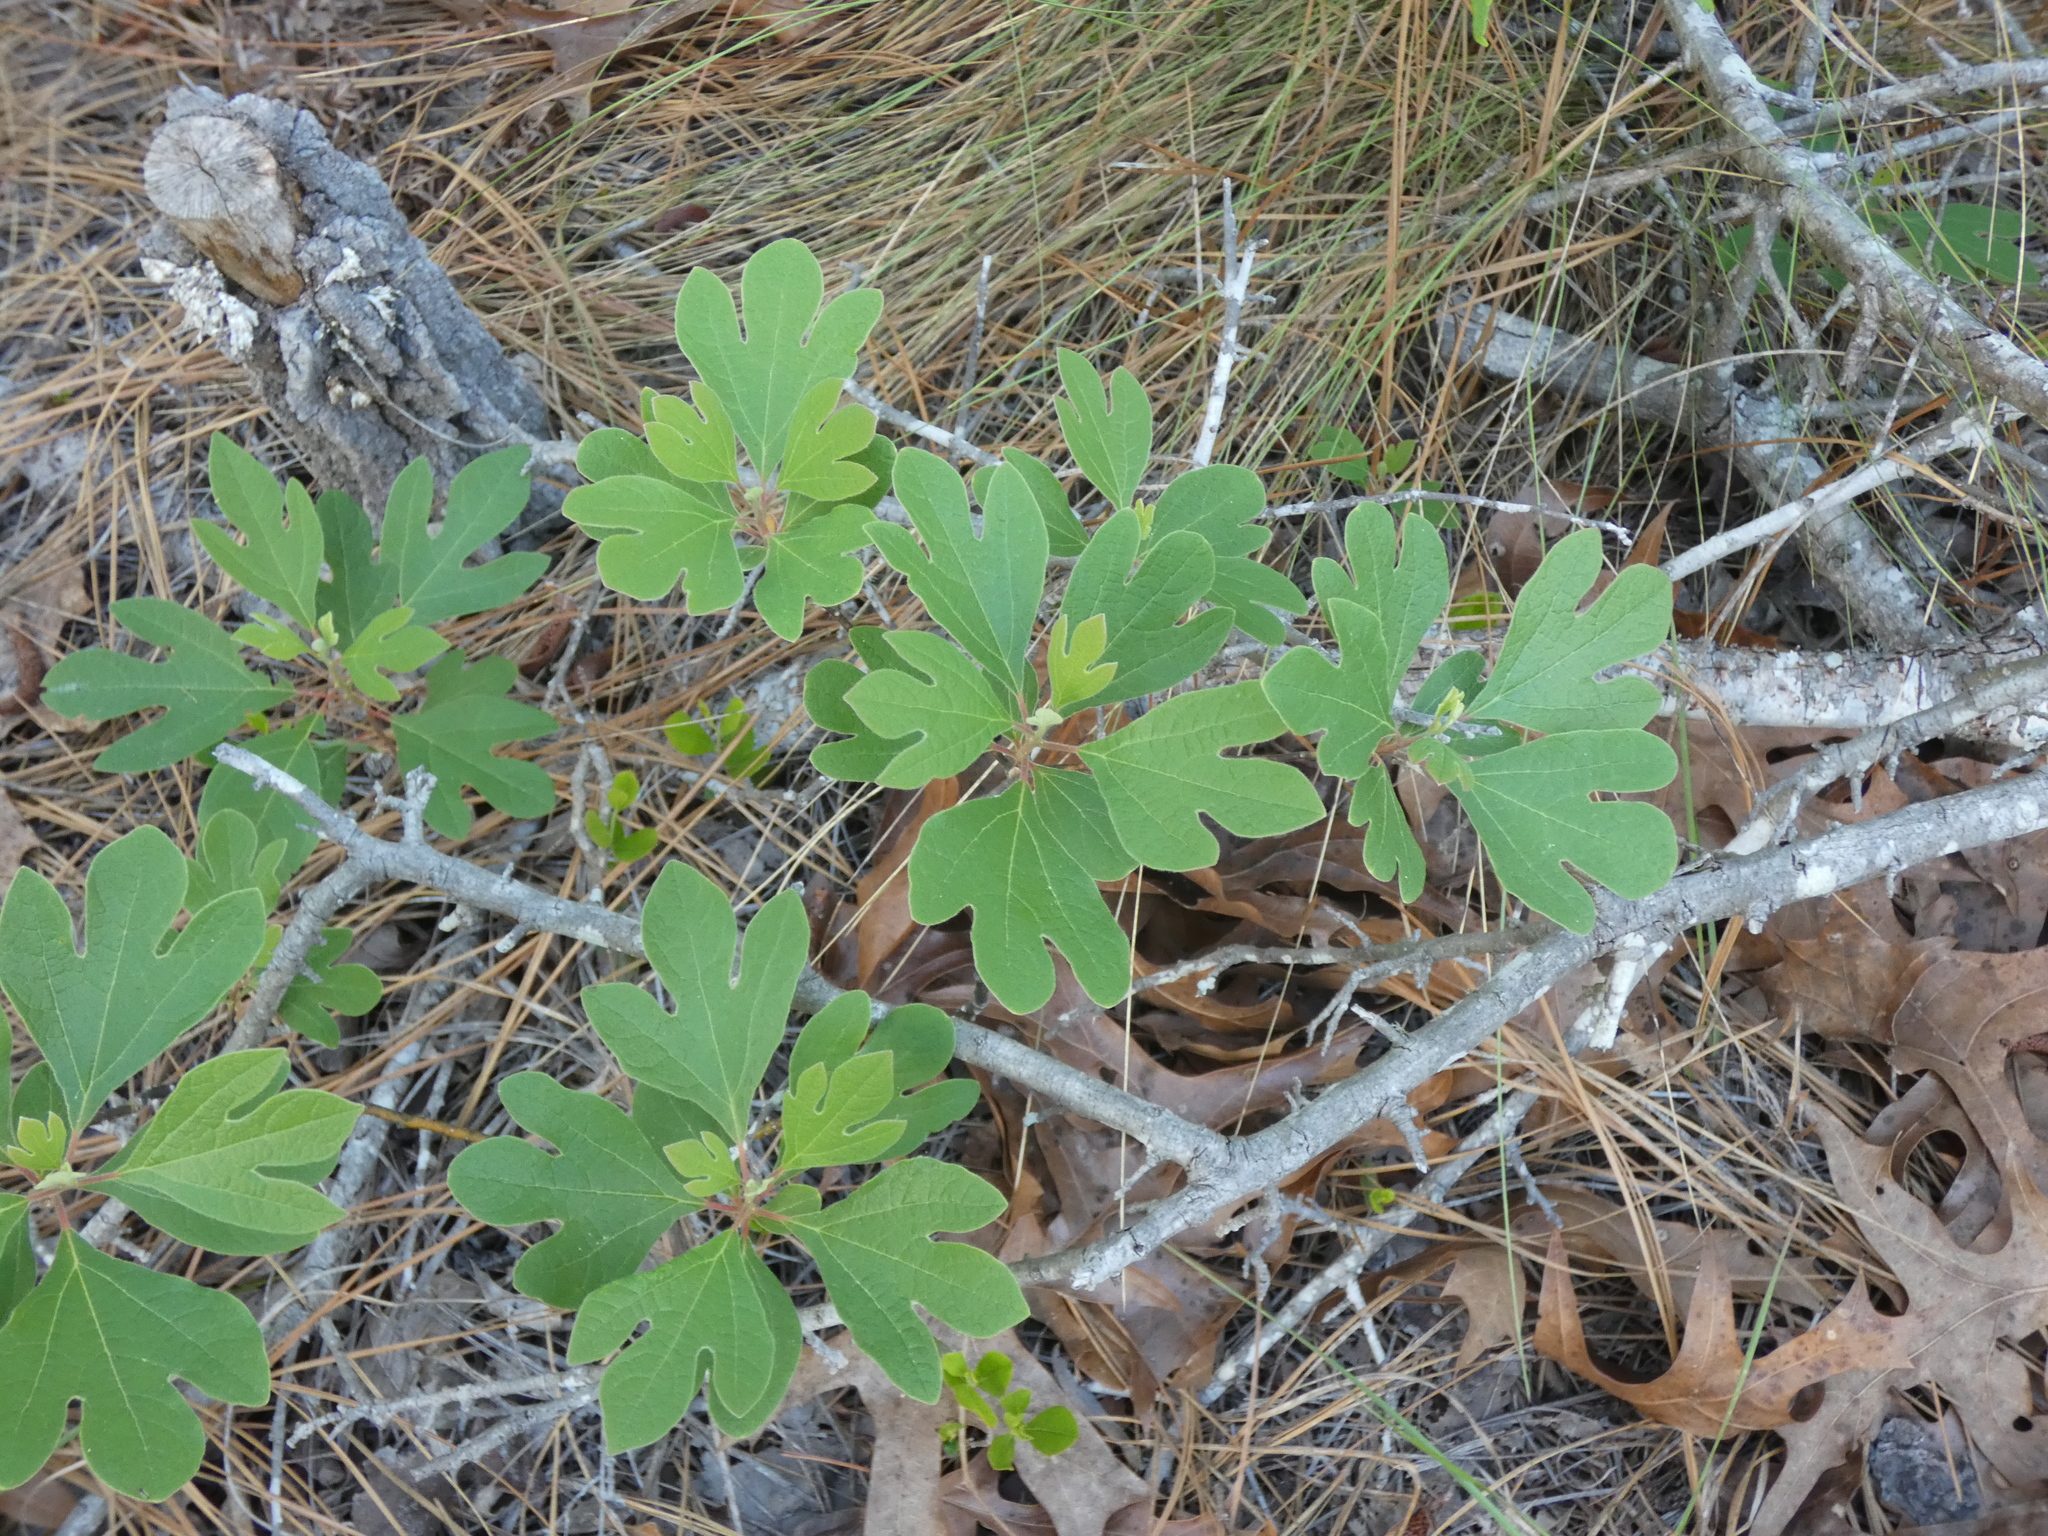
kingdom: Plantae
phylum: Tracheophyta
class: Magnoliopsida
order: Laurales
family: Lauraceae
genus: Sassafras
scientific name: Sassafras albidum
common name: Sassafras
